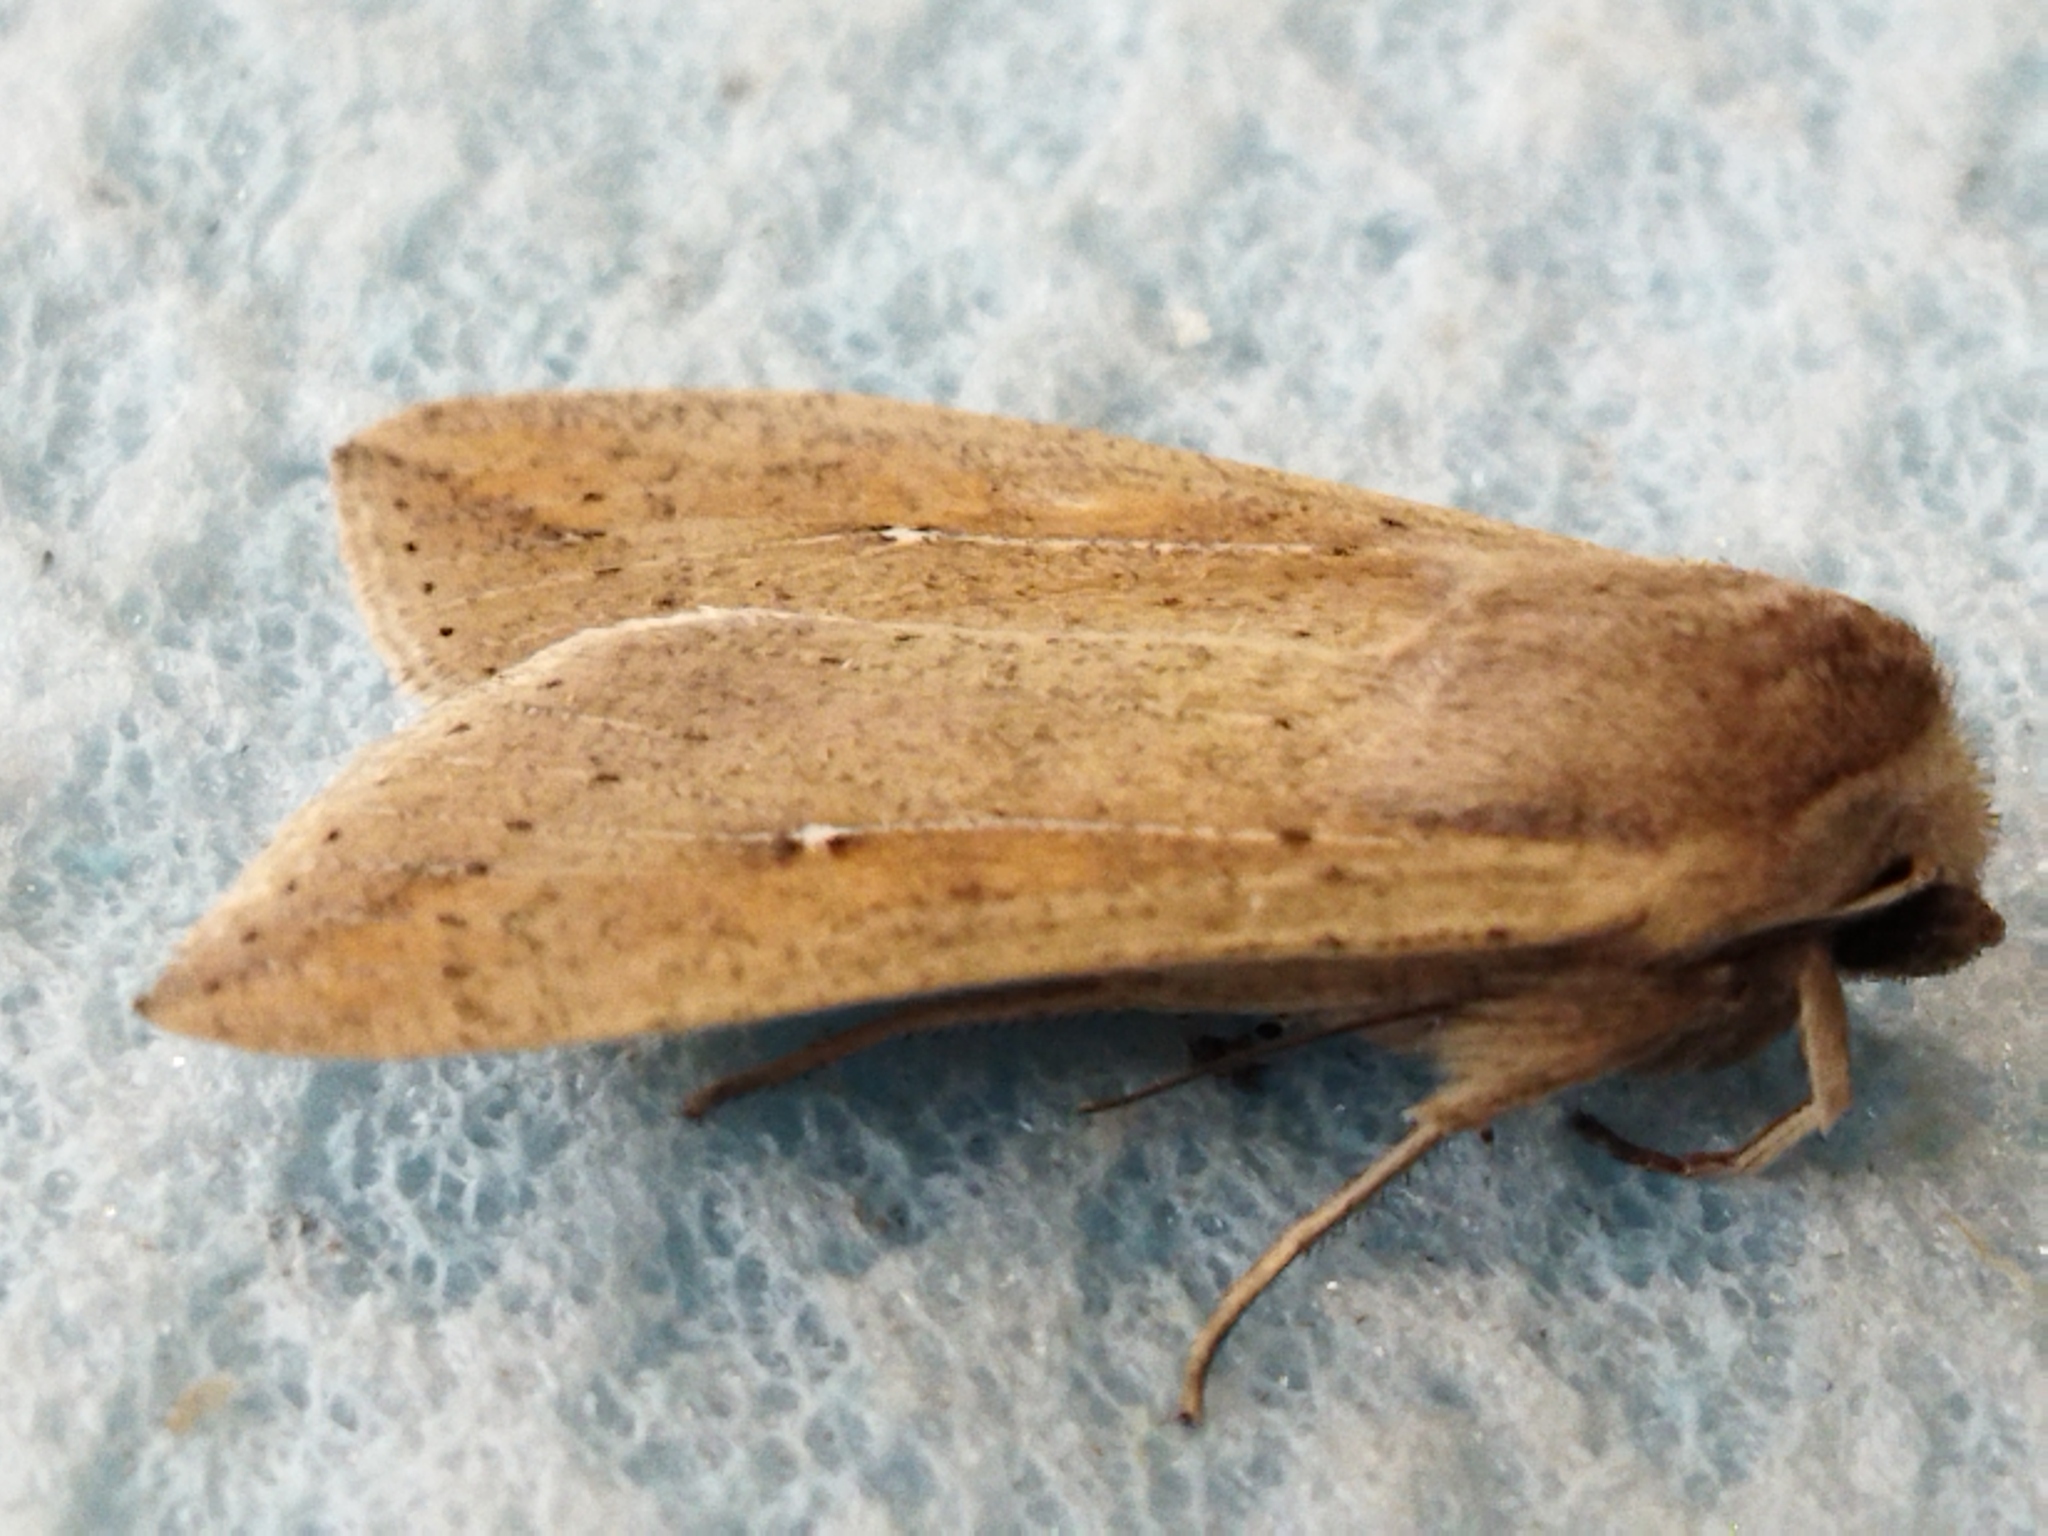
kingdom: Animalia
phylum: Arthropoda
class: Insecta
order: Lepidoptera
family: Noctuidae
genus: Mythimna
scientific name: Mythimna unipuncta
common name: White-speck
